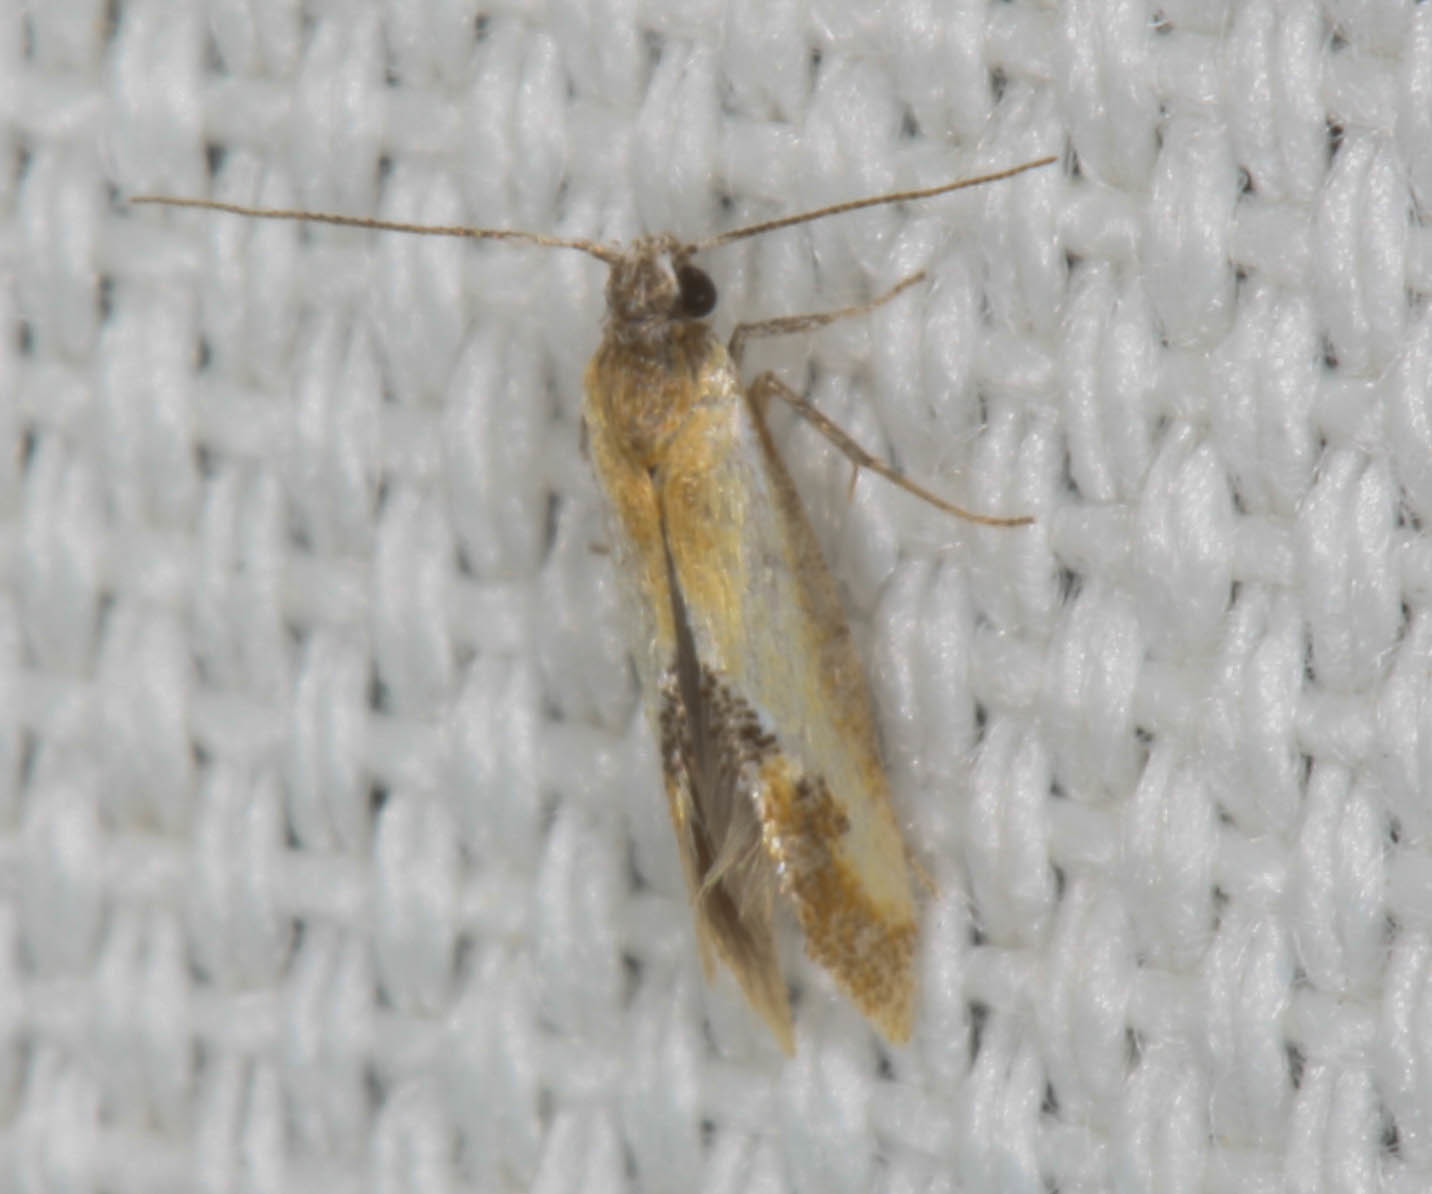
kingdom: Animalia
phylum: Arthropoda
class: Insecta
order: Lepidoptera
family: Oecophoridae
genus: Batia
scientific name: Batia lunaris
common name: Moth
